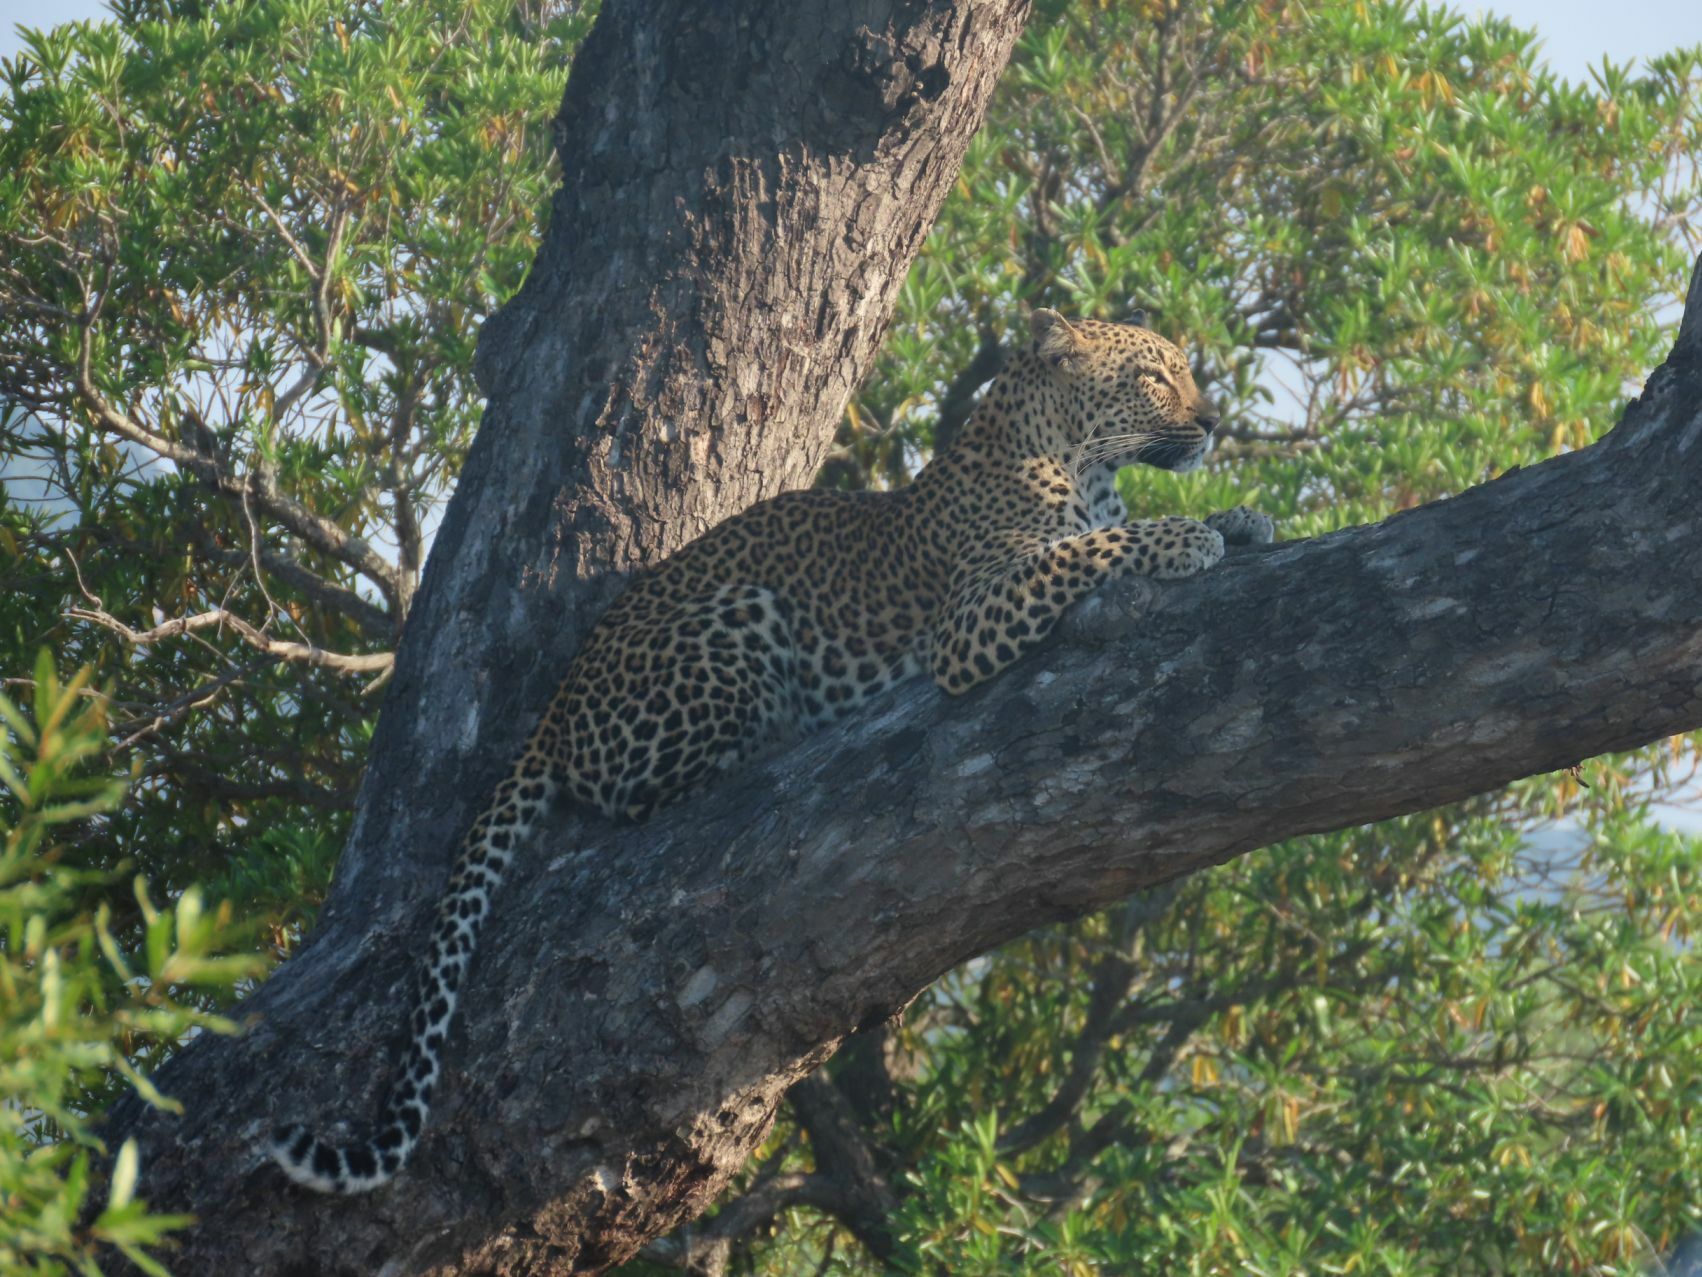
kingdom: Animalia
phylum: Chordata
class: Mammalia
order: Carnivora
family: Felidae
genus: Panthera
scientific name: Panthera pardus
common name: Leopard
